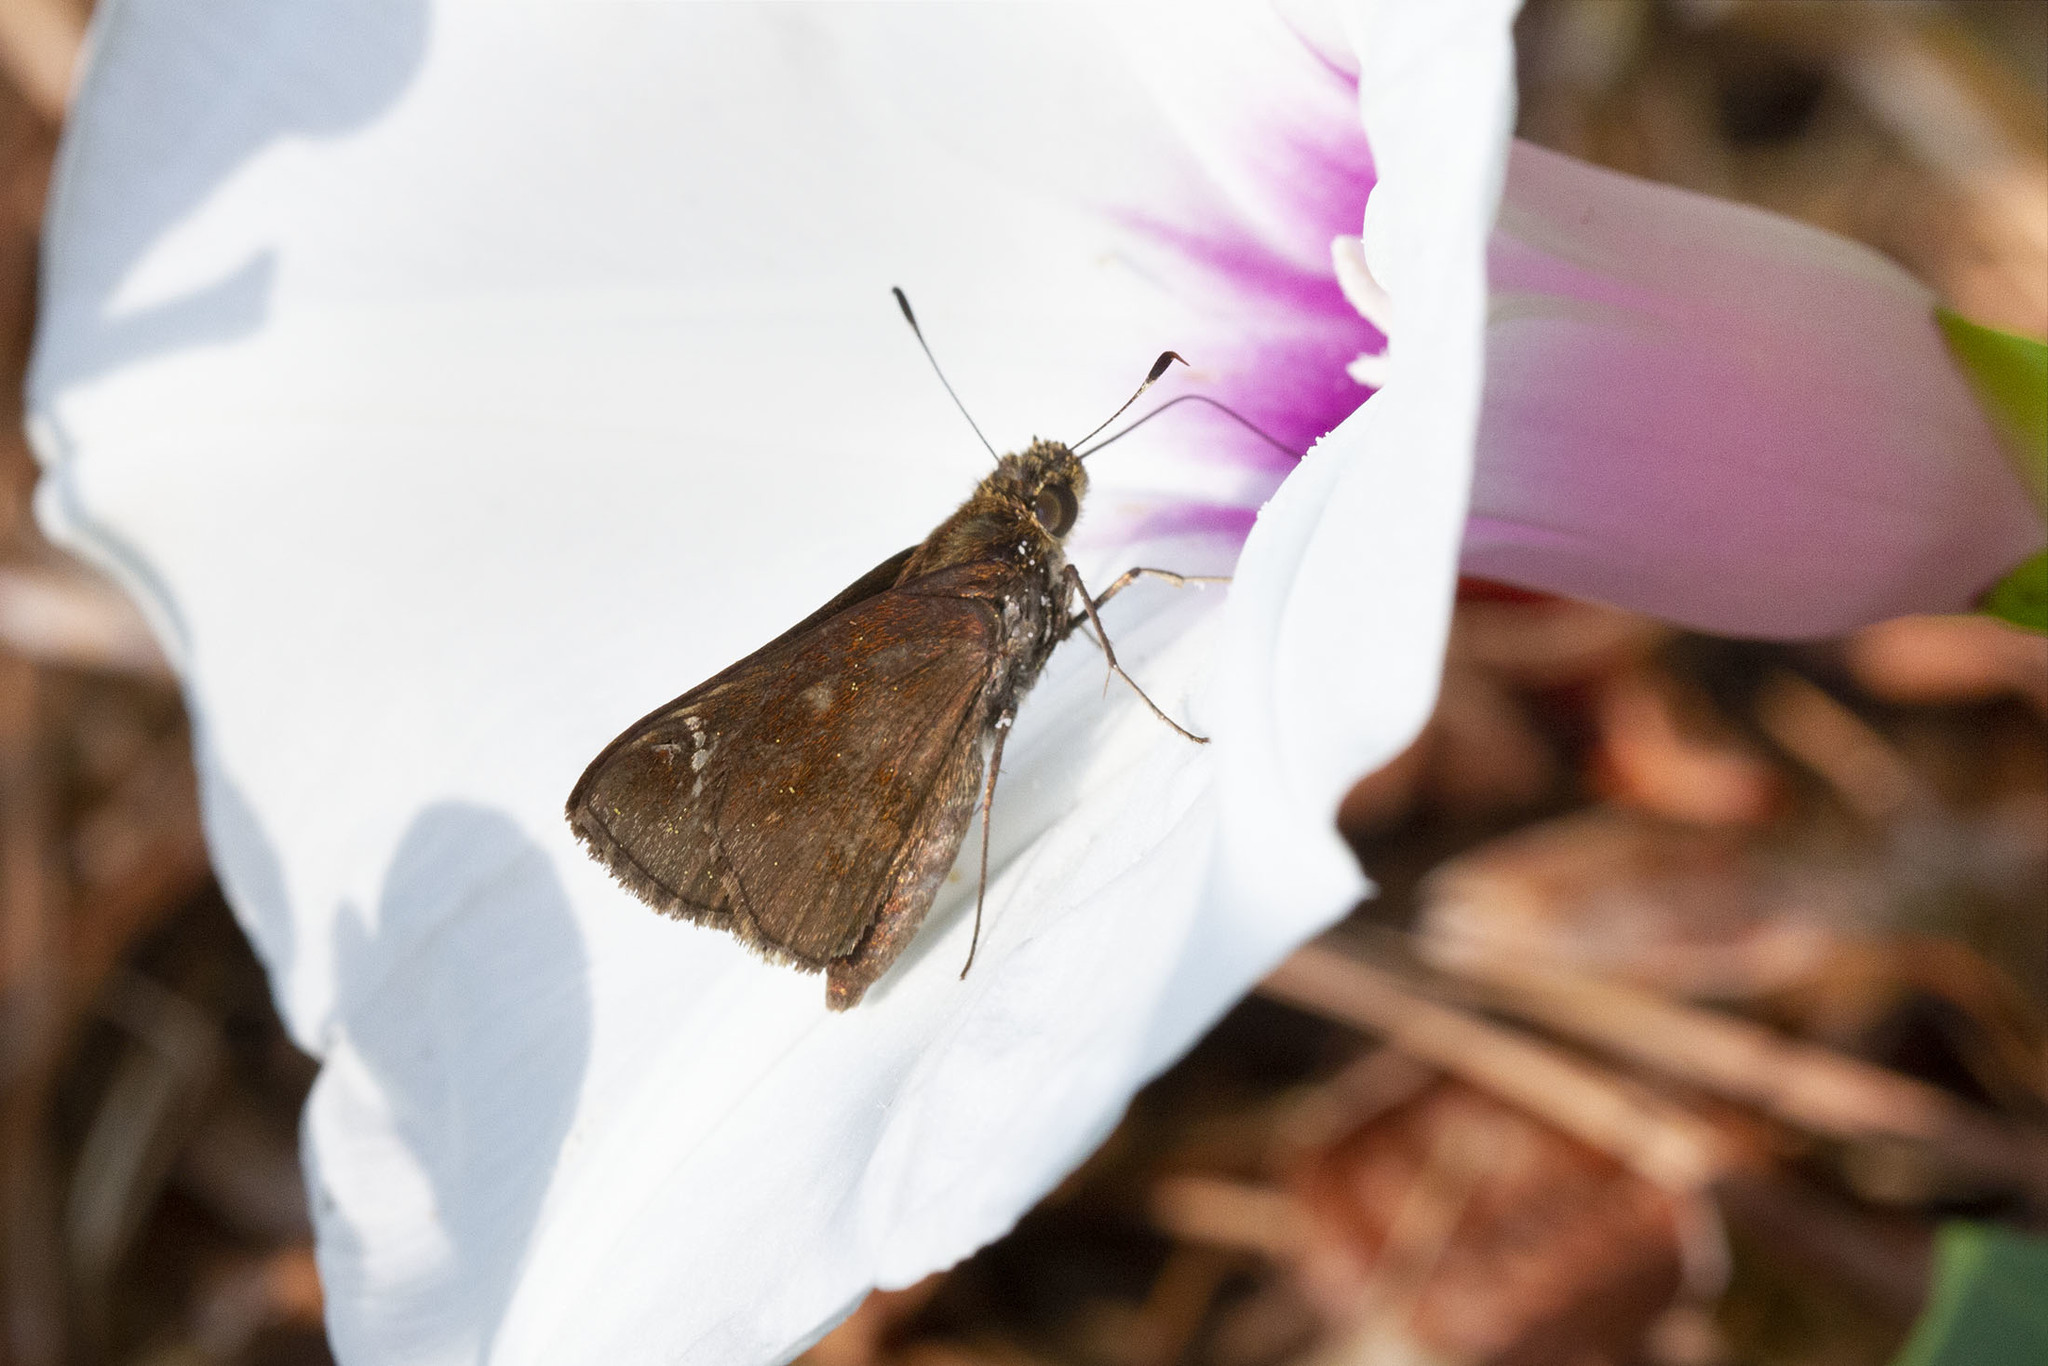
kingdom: Animalia
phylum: Arthropoda
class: Insecta
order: Lepidoptera
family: Hesperiidae
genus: Lerema
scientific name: Lerema accius
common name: Clouded skipper
